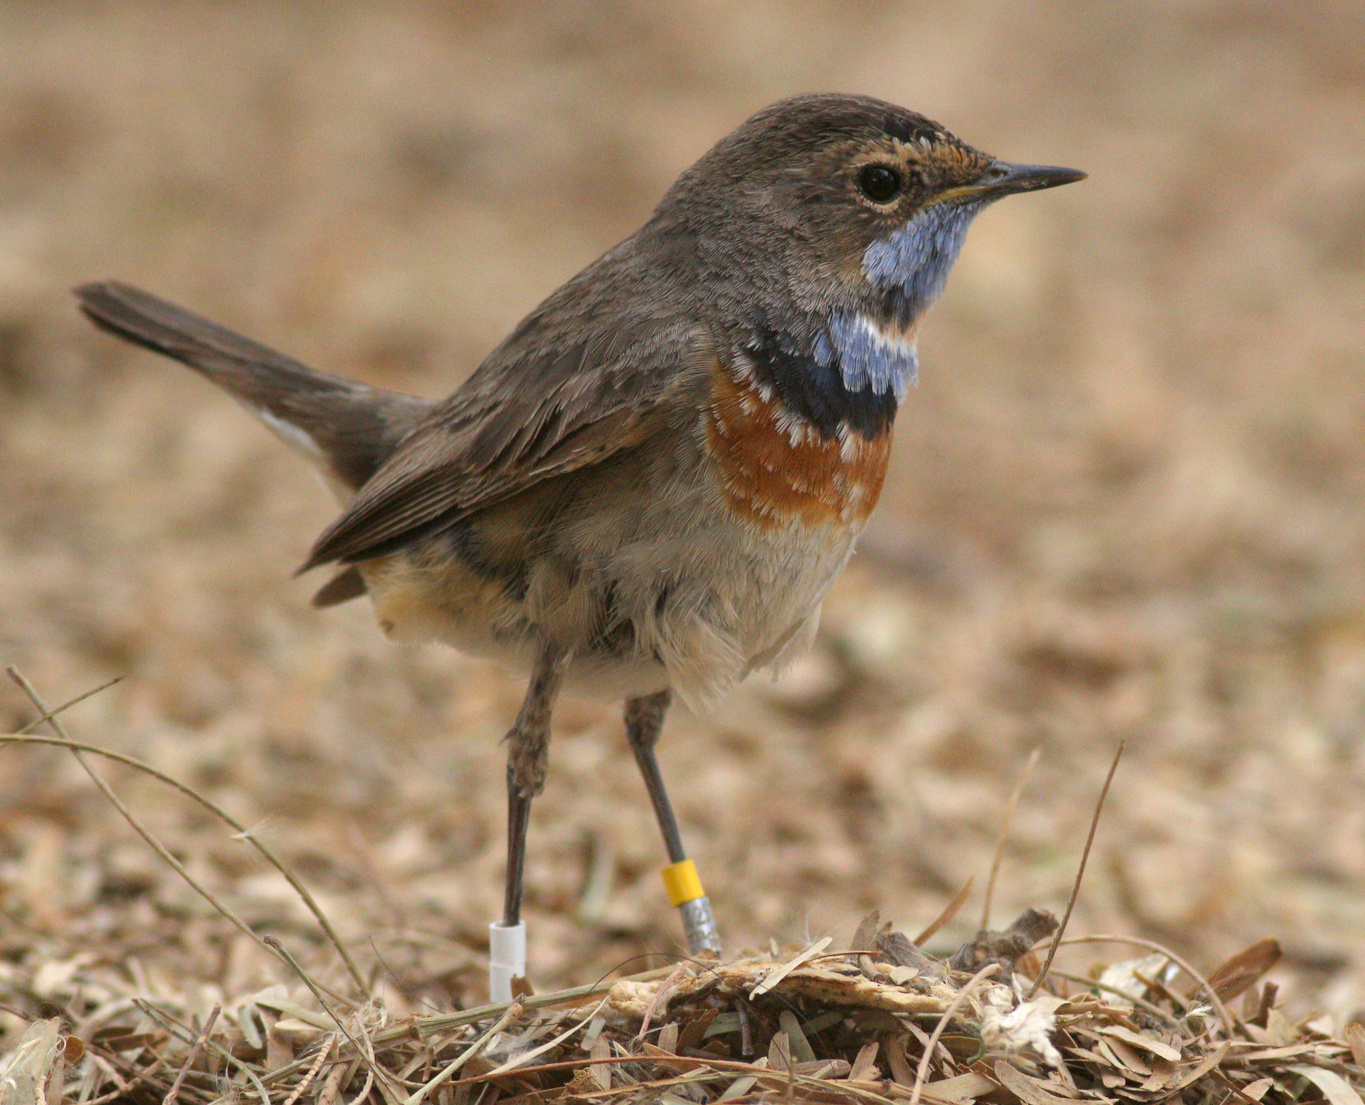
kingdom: Animalia
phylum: Chordata
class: Aves
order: Passeriformes
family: Muscicapidae
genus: Luscinia
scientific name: Luscinia svecica
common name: Bluethroat
